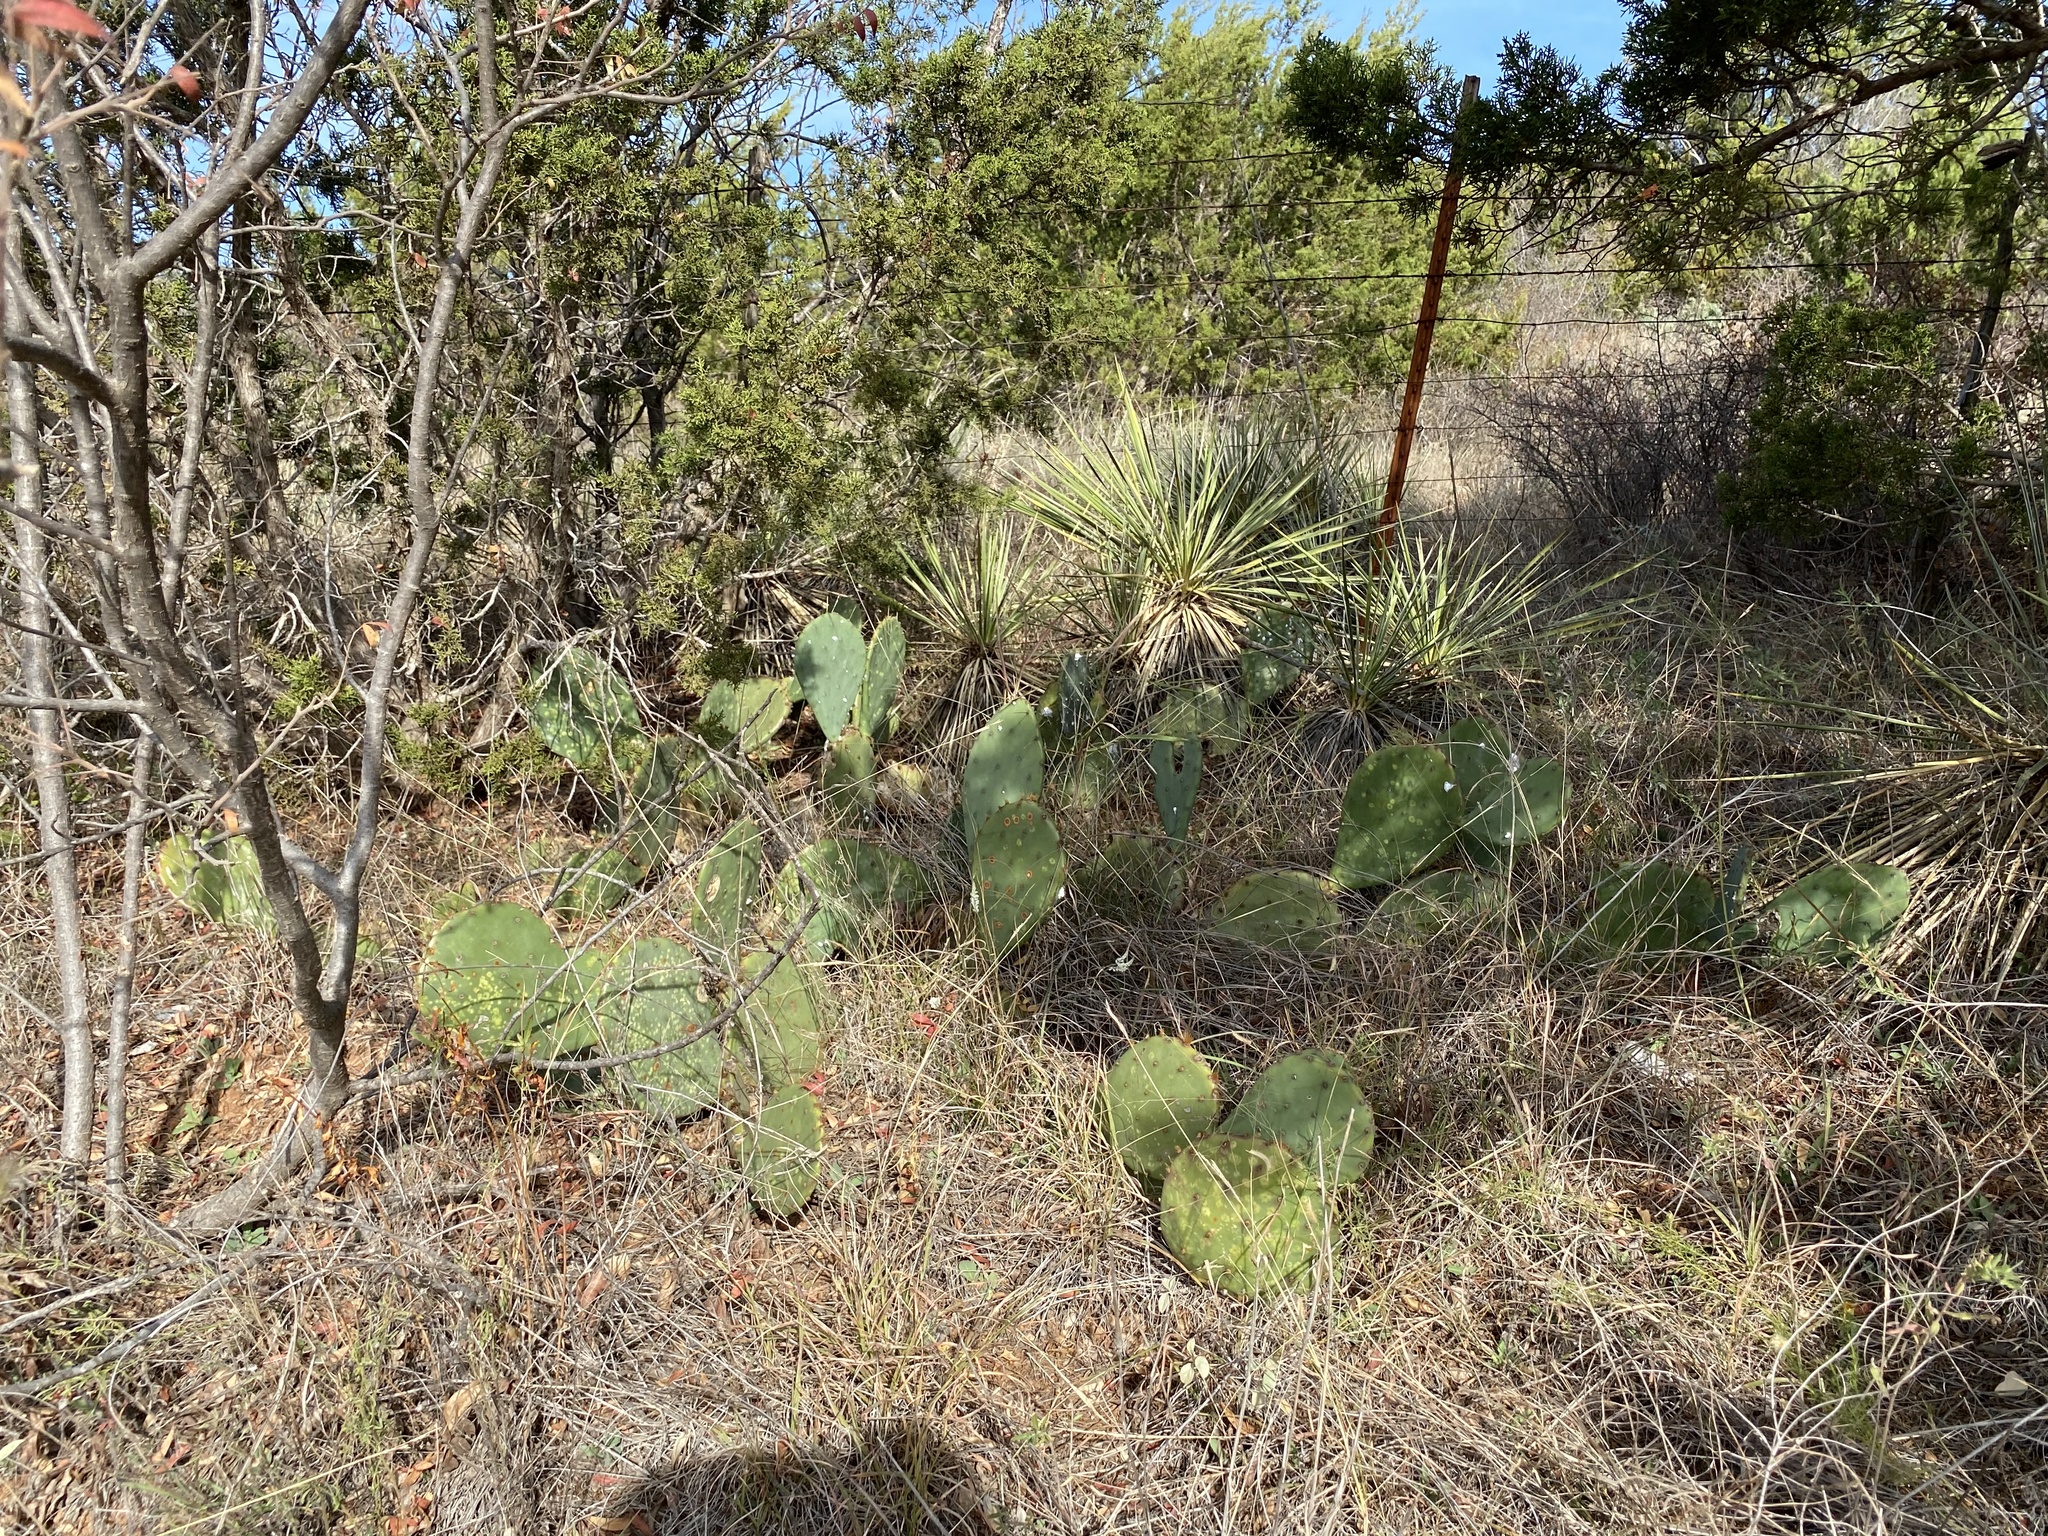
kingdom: Plantae
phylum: Tracheophyta
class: Magnoliopsida
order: Caryophyllales
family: Cactaceae
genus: Opuntia
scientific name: Opuntia engelmannii
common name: Cactus-apple
